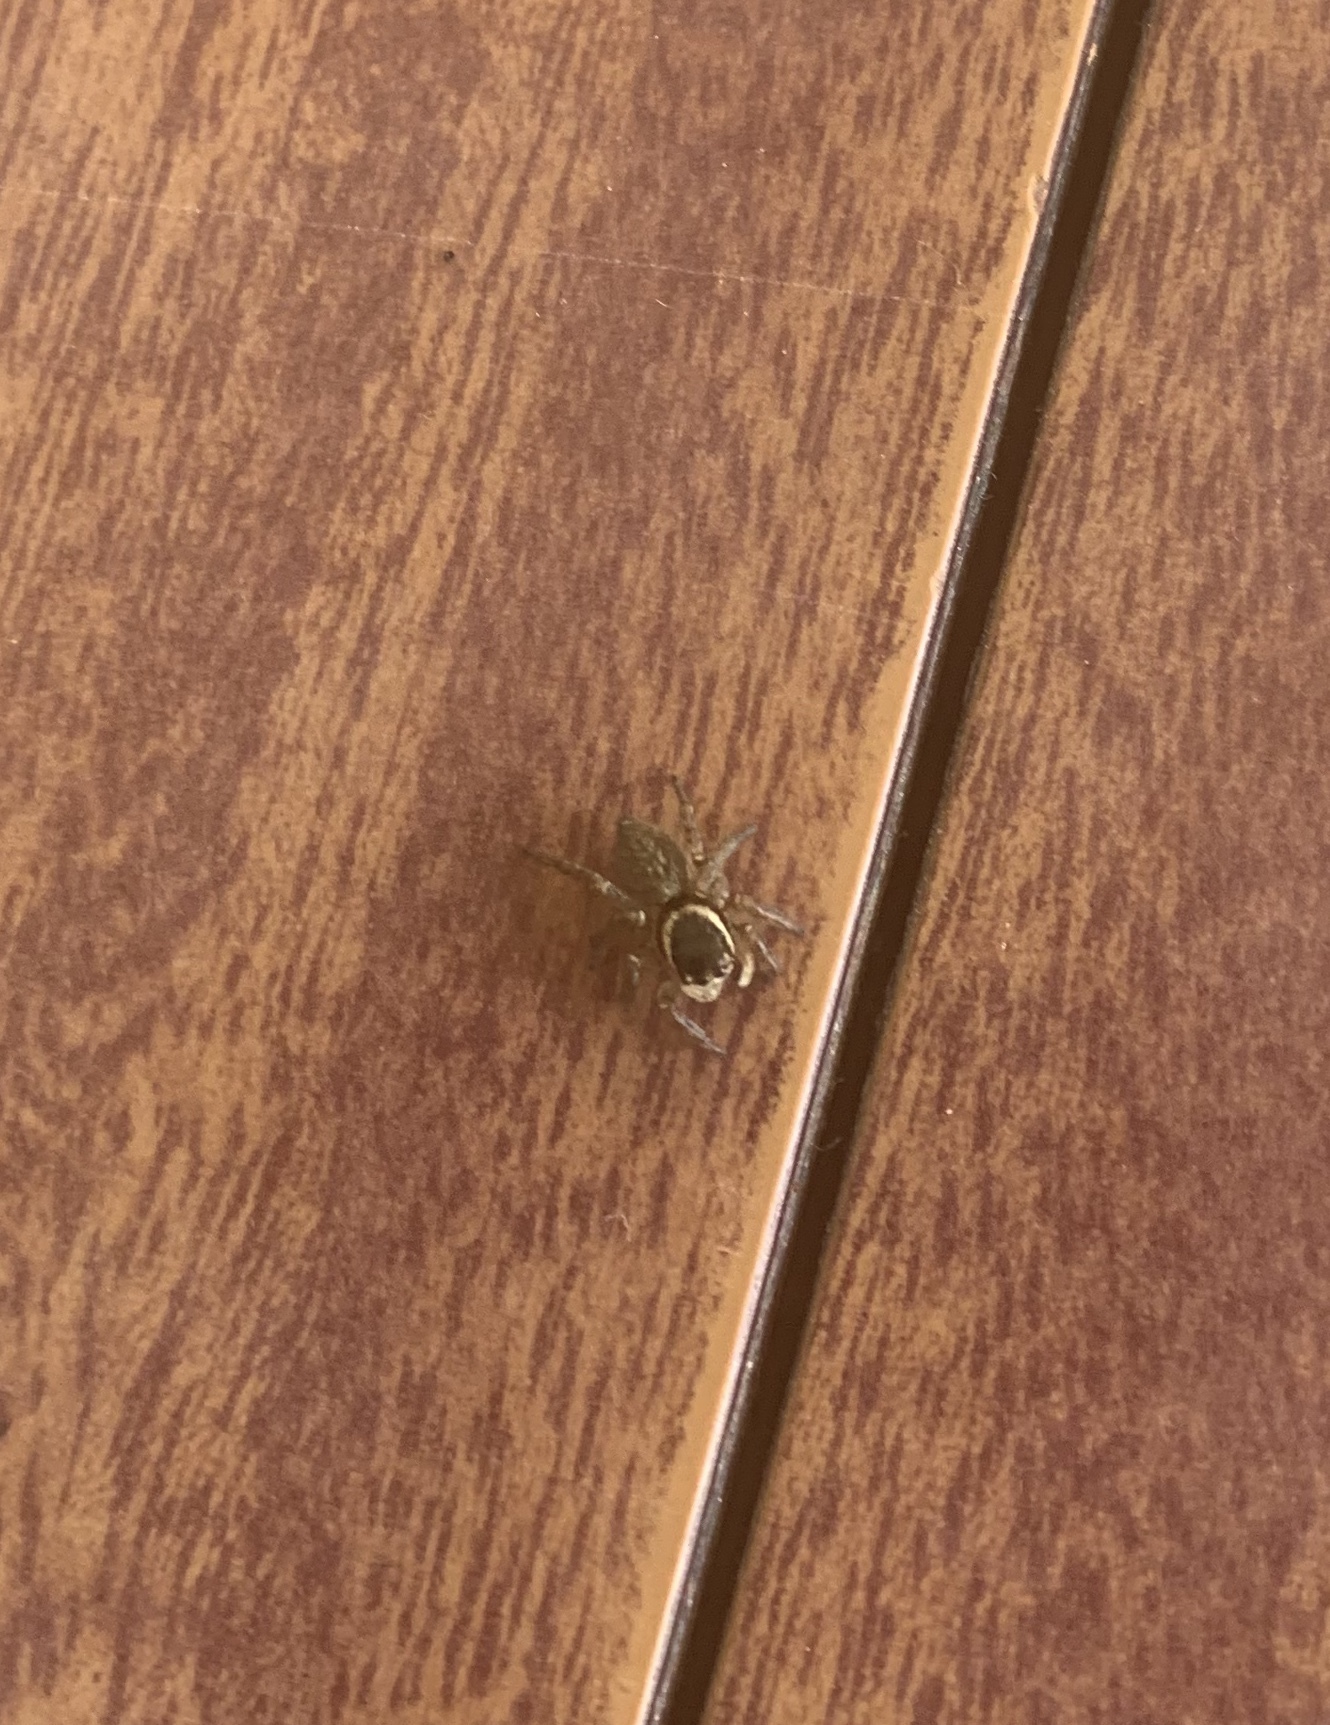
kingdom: Animalia
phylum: Arthropoda
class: Arachnida
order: Araneae
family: Salticidae
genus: Maratus
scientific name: Maratus griseus
